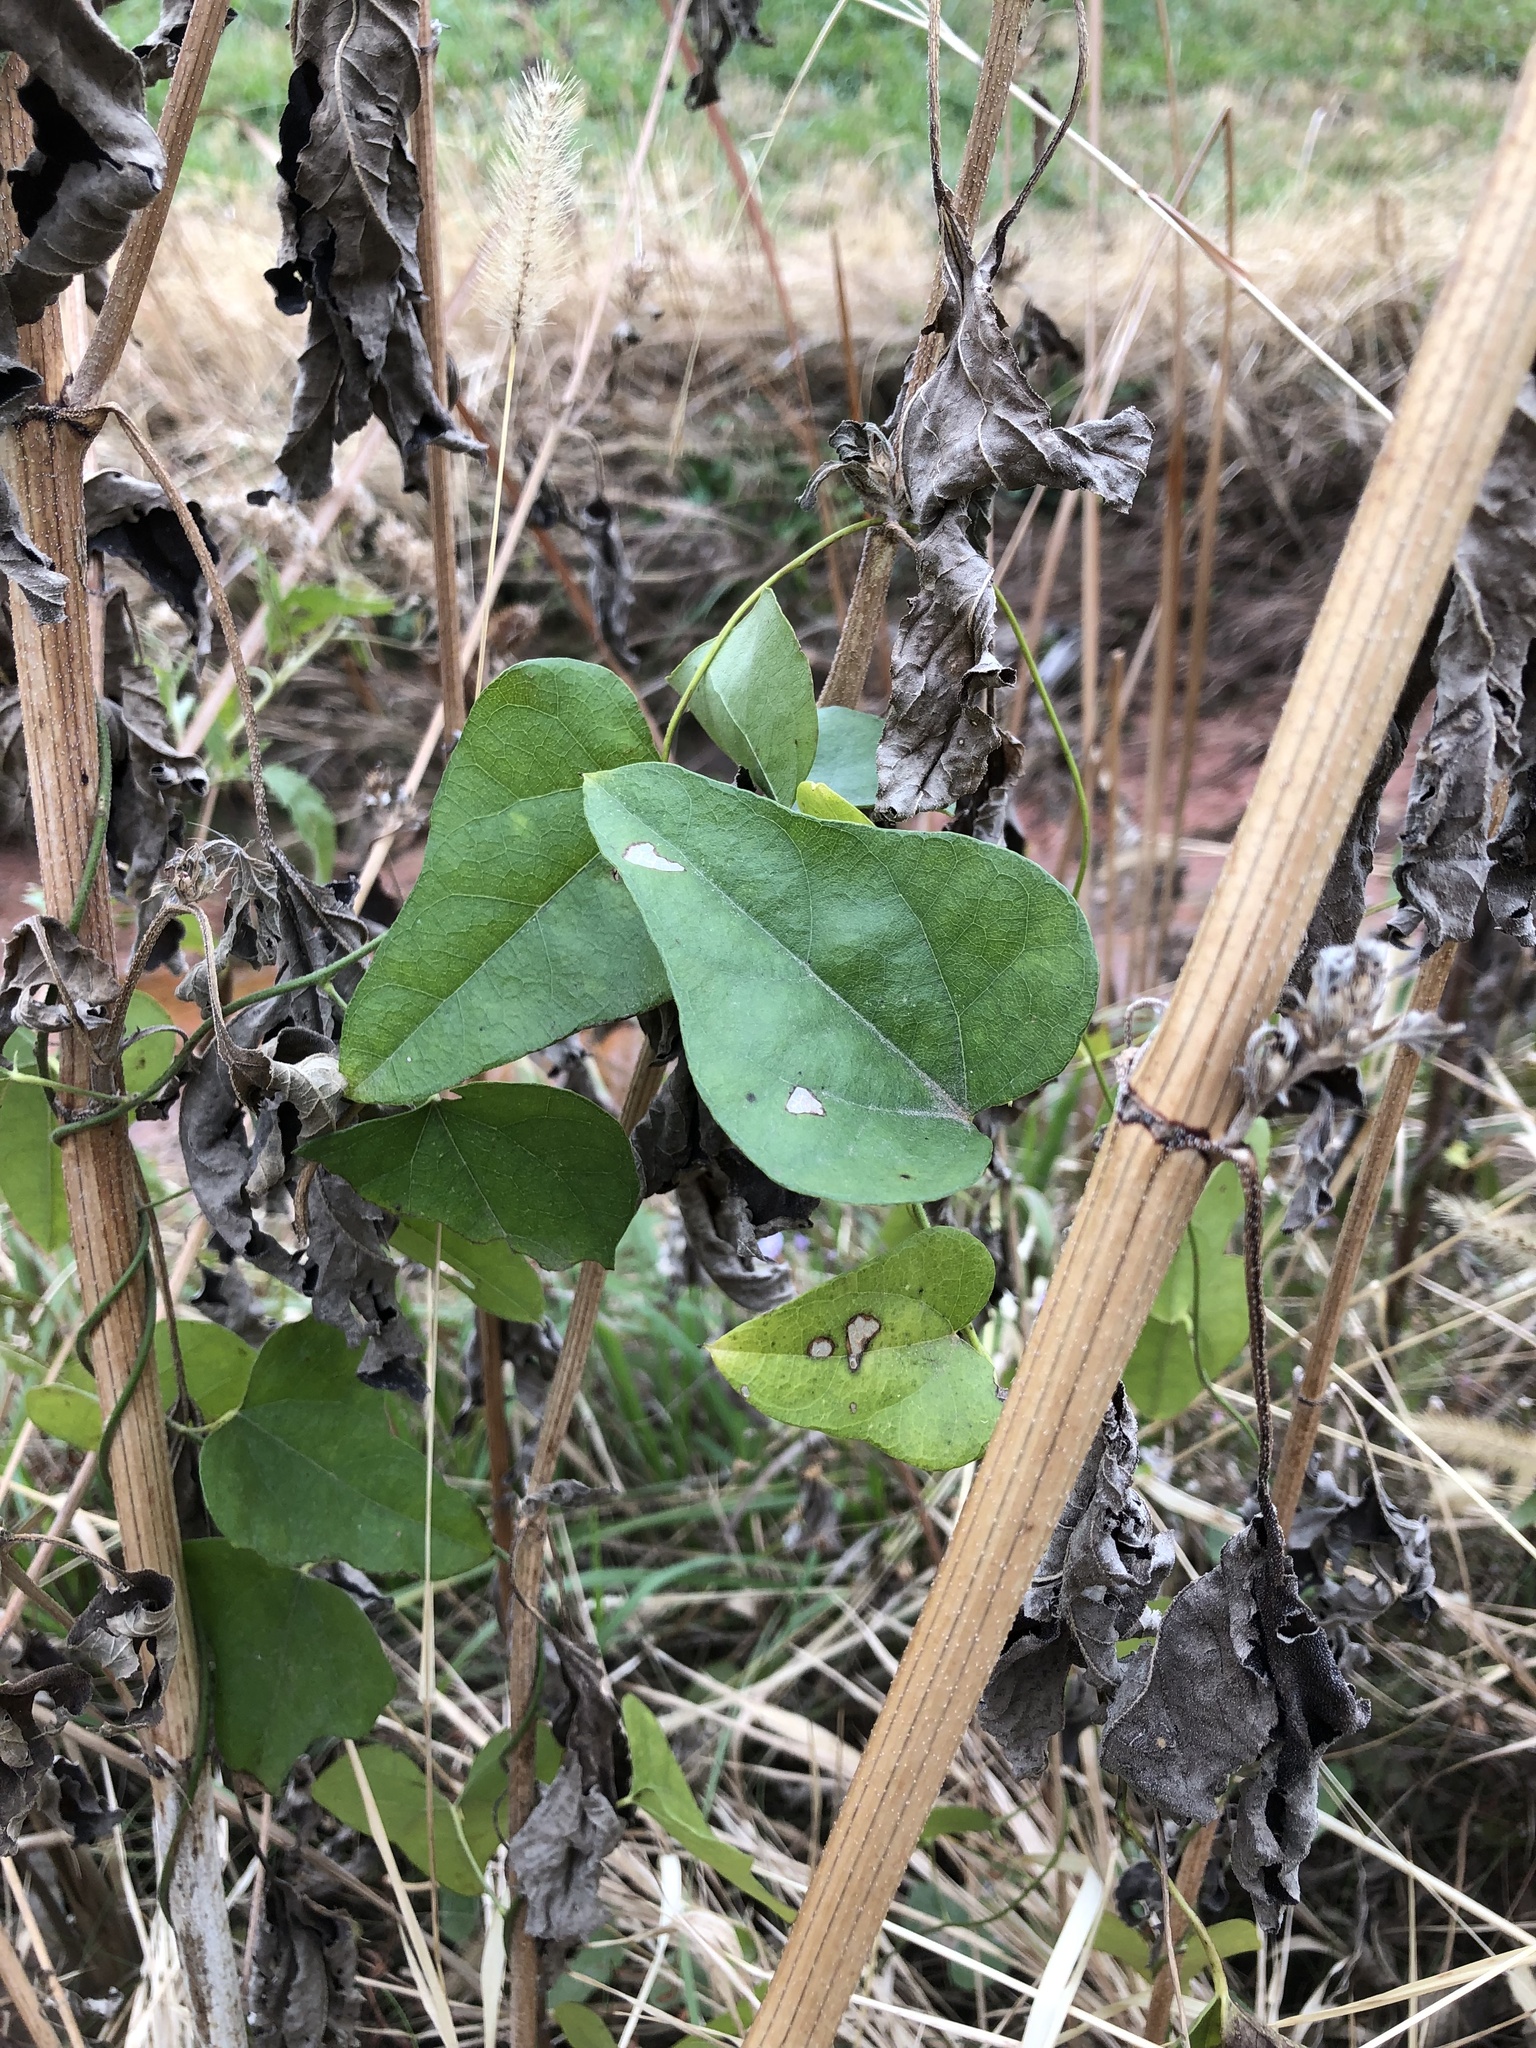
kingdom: Plantae
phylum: Tracheophyta
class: Magnoliopsida
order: Ranunculales
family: Menispermaceae
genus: Cocculus
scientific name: Cocculus carolinus
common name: Carolina moonseed
